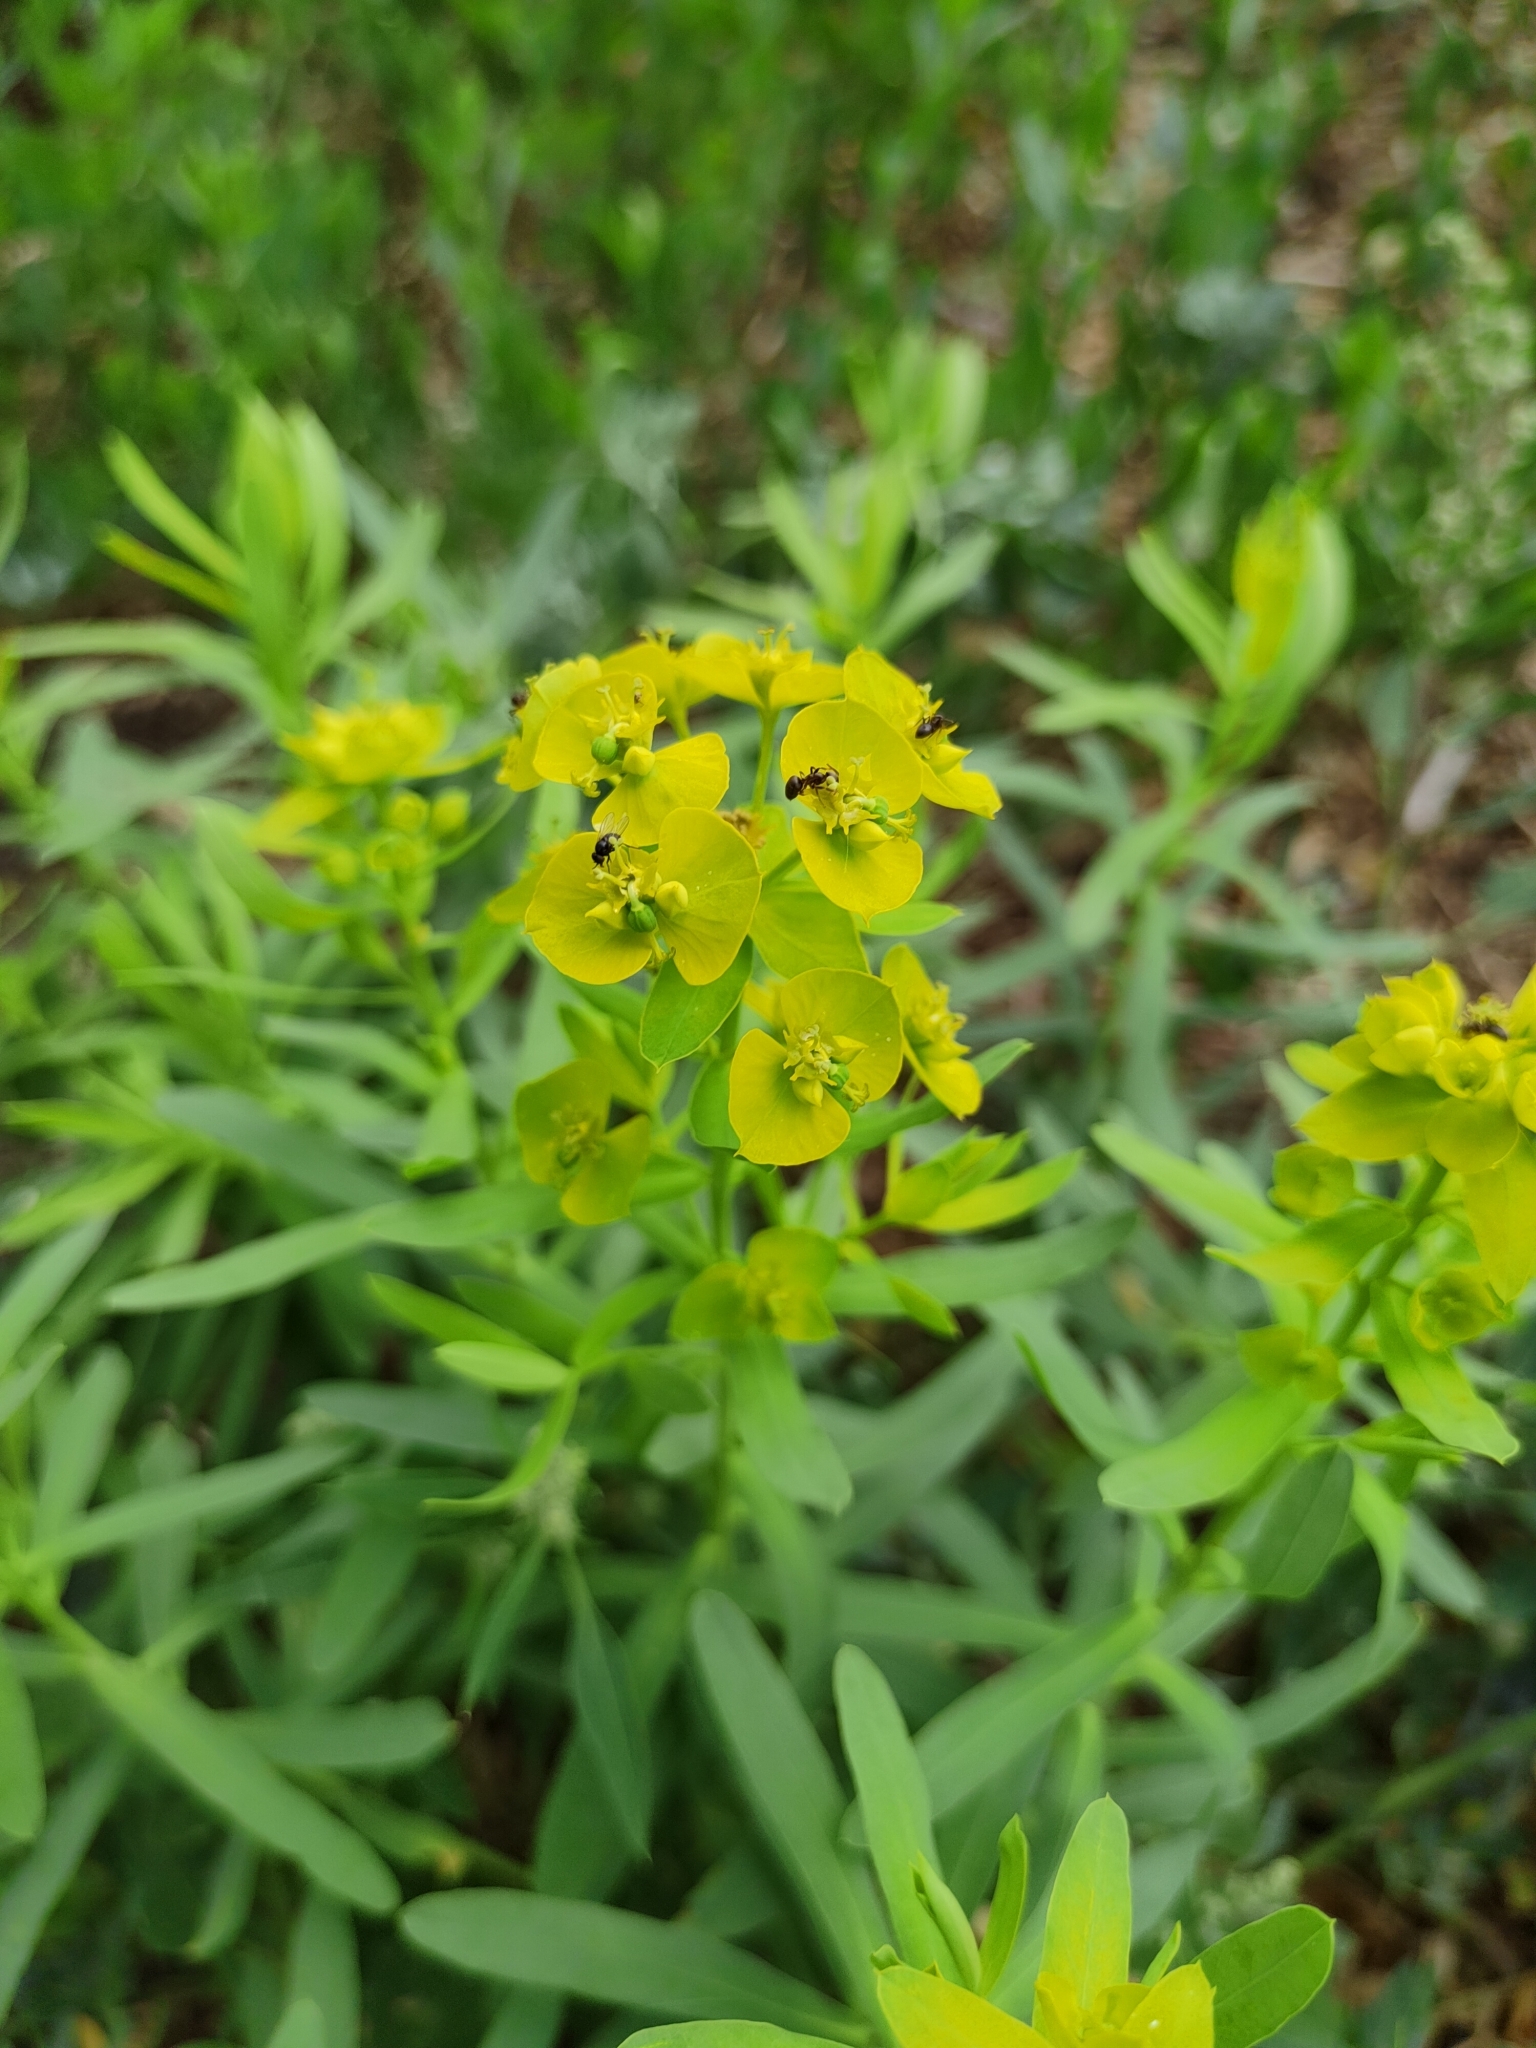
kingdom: Plantae
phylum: Tracheophyta
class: Magnoliopsida
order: Malpighiales
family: Euphorbiaceae
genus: Euphorbia
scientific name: Euphorbia virgata
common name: Leafy spurge
